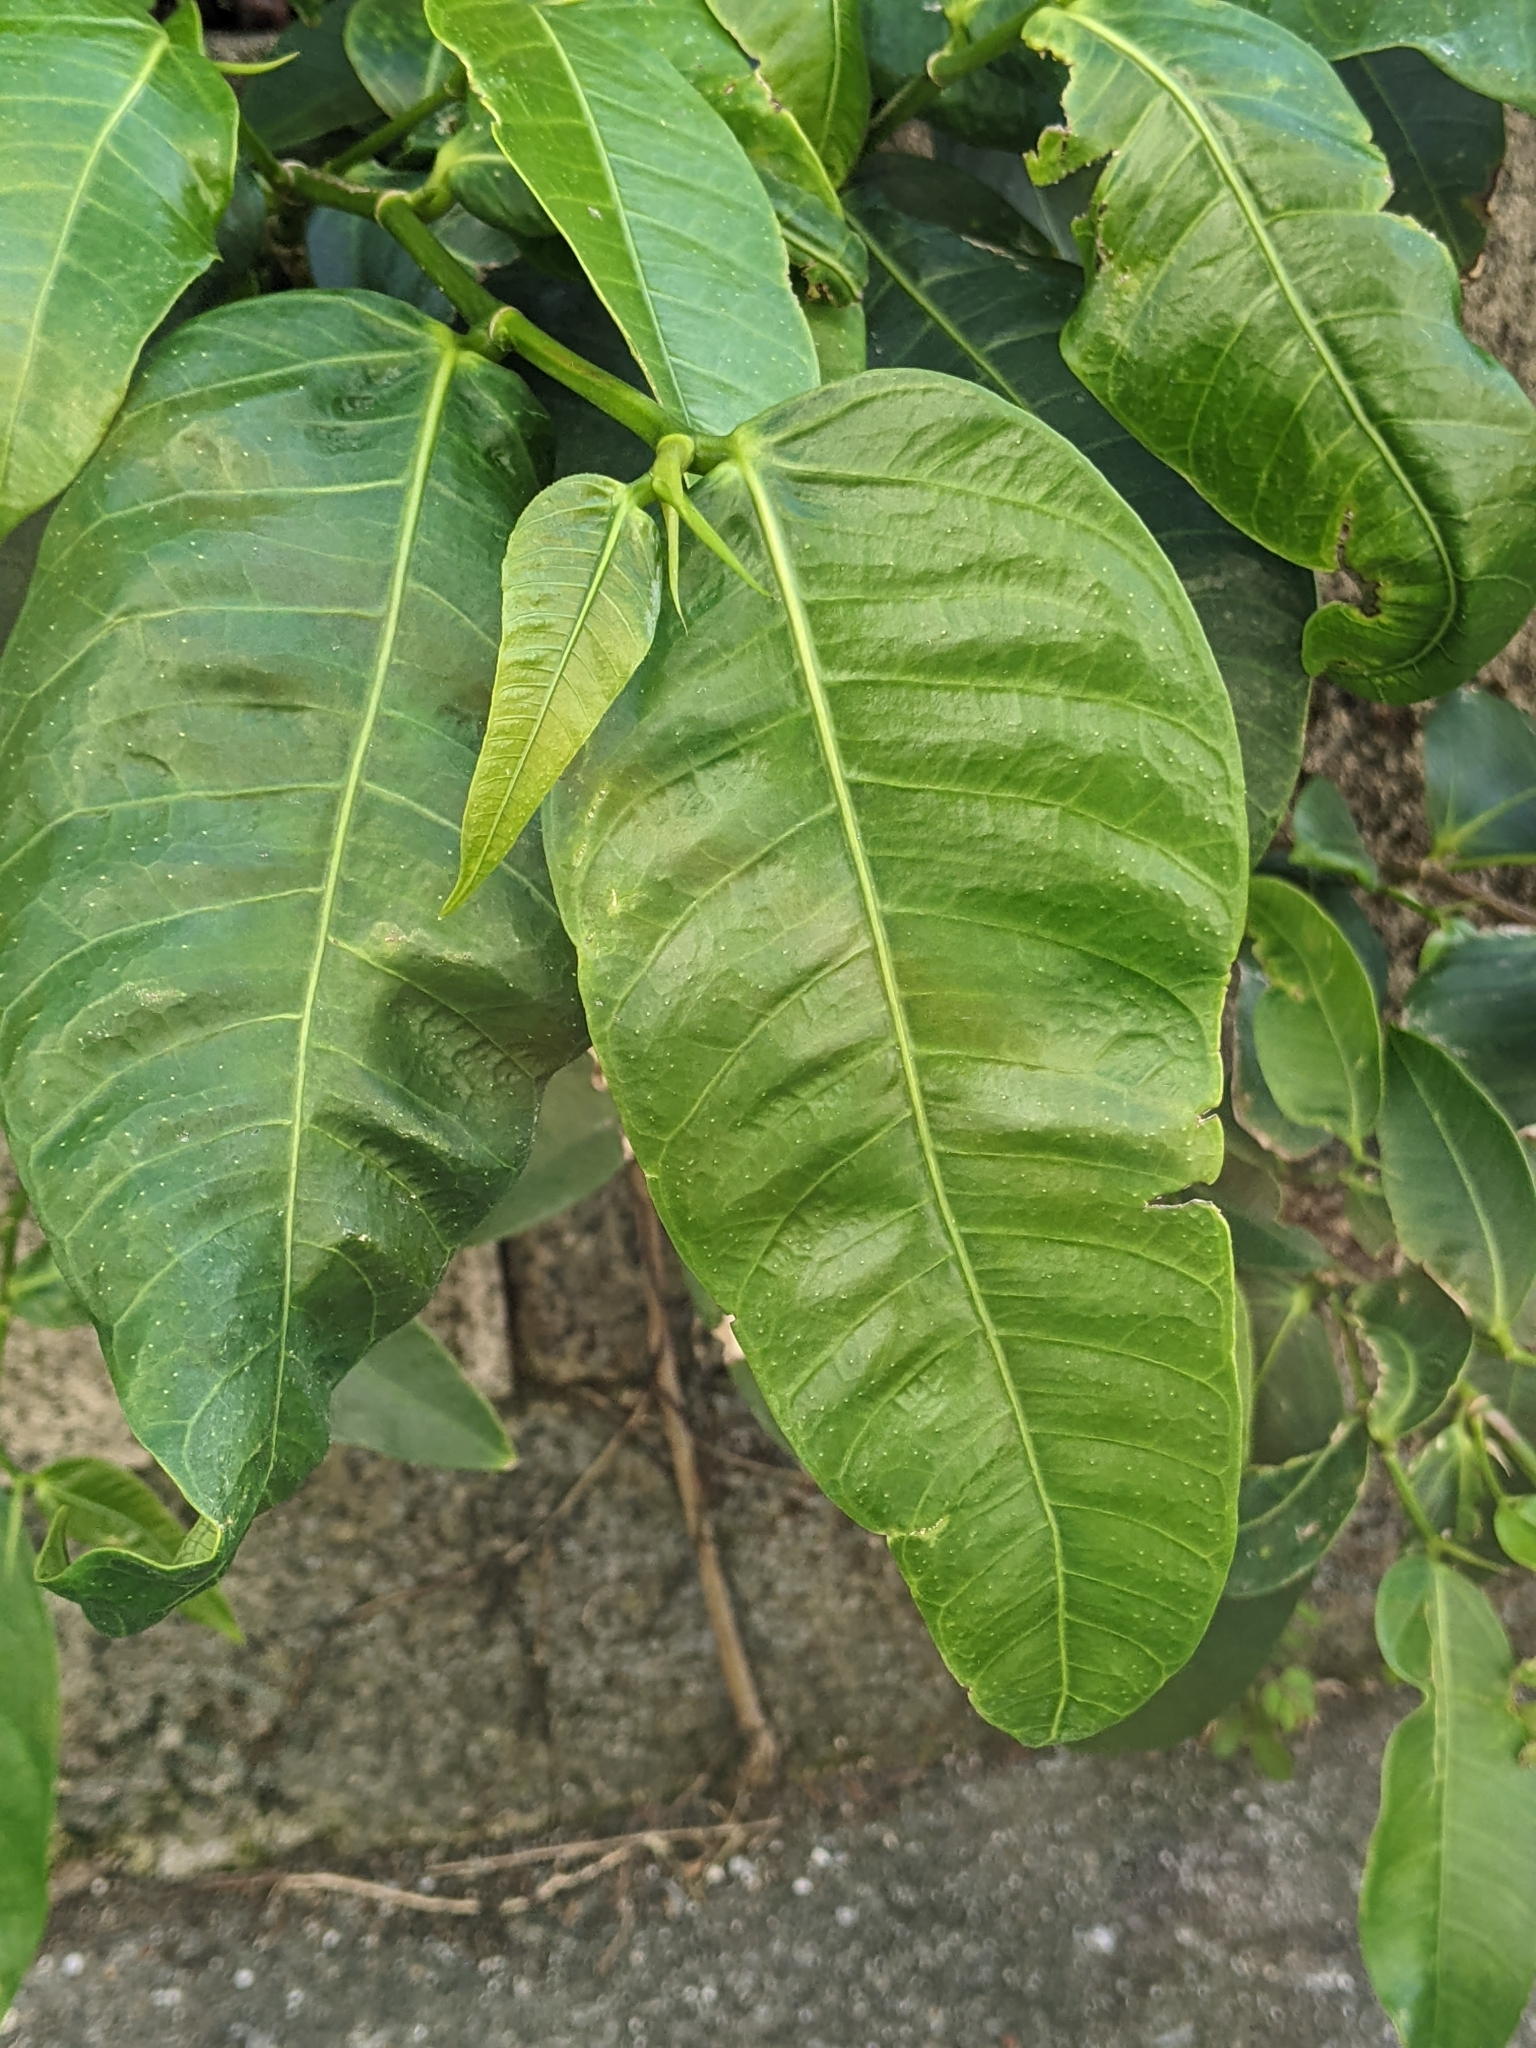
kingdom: Plantae
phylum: Tracheophyta
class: Magnoliopsida
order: Rosales
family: Moraceae
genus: Ficus
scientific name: Ficus virgata
